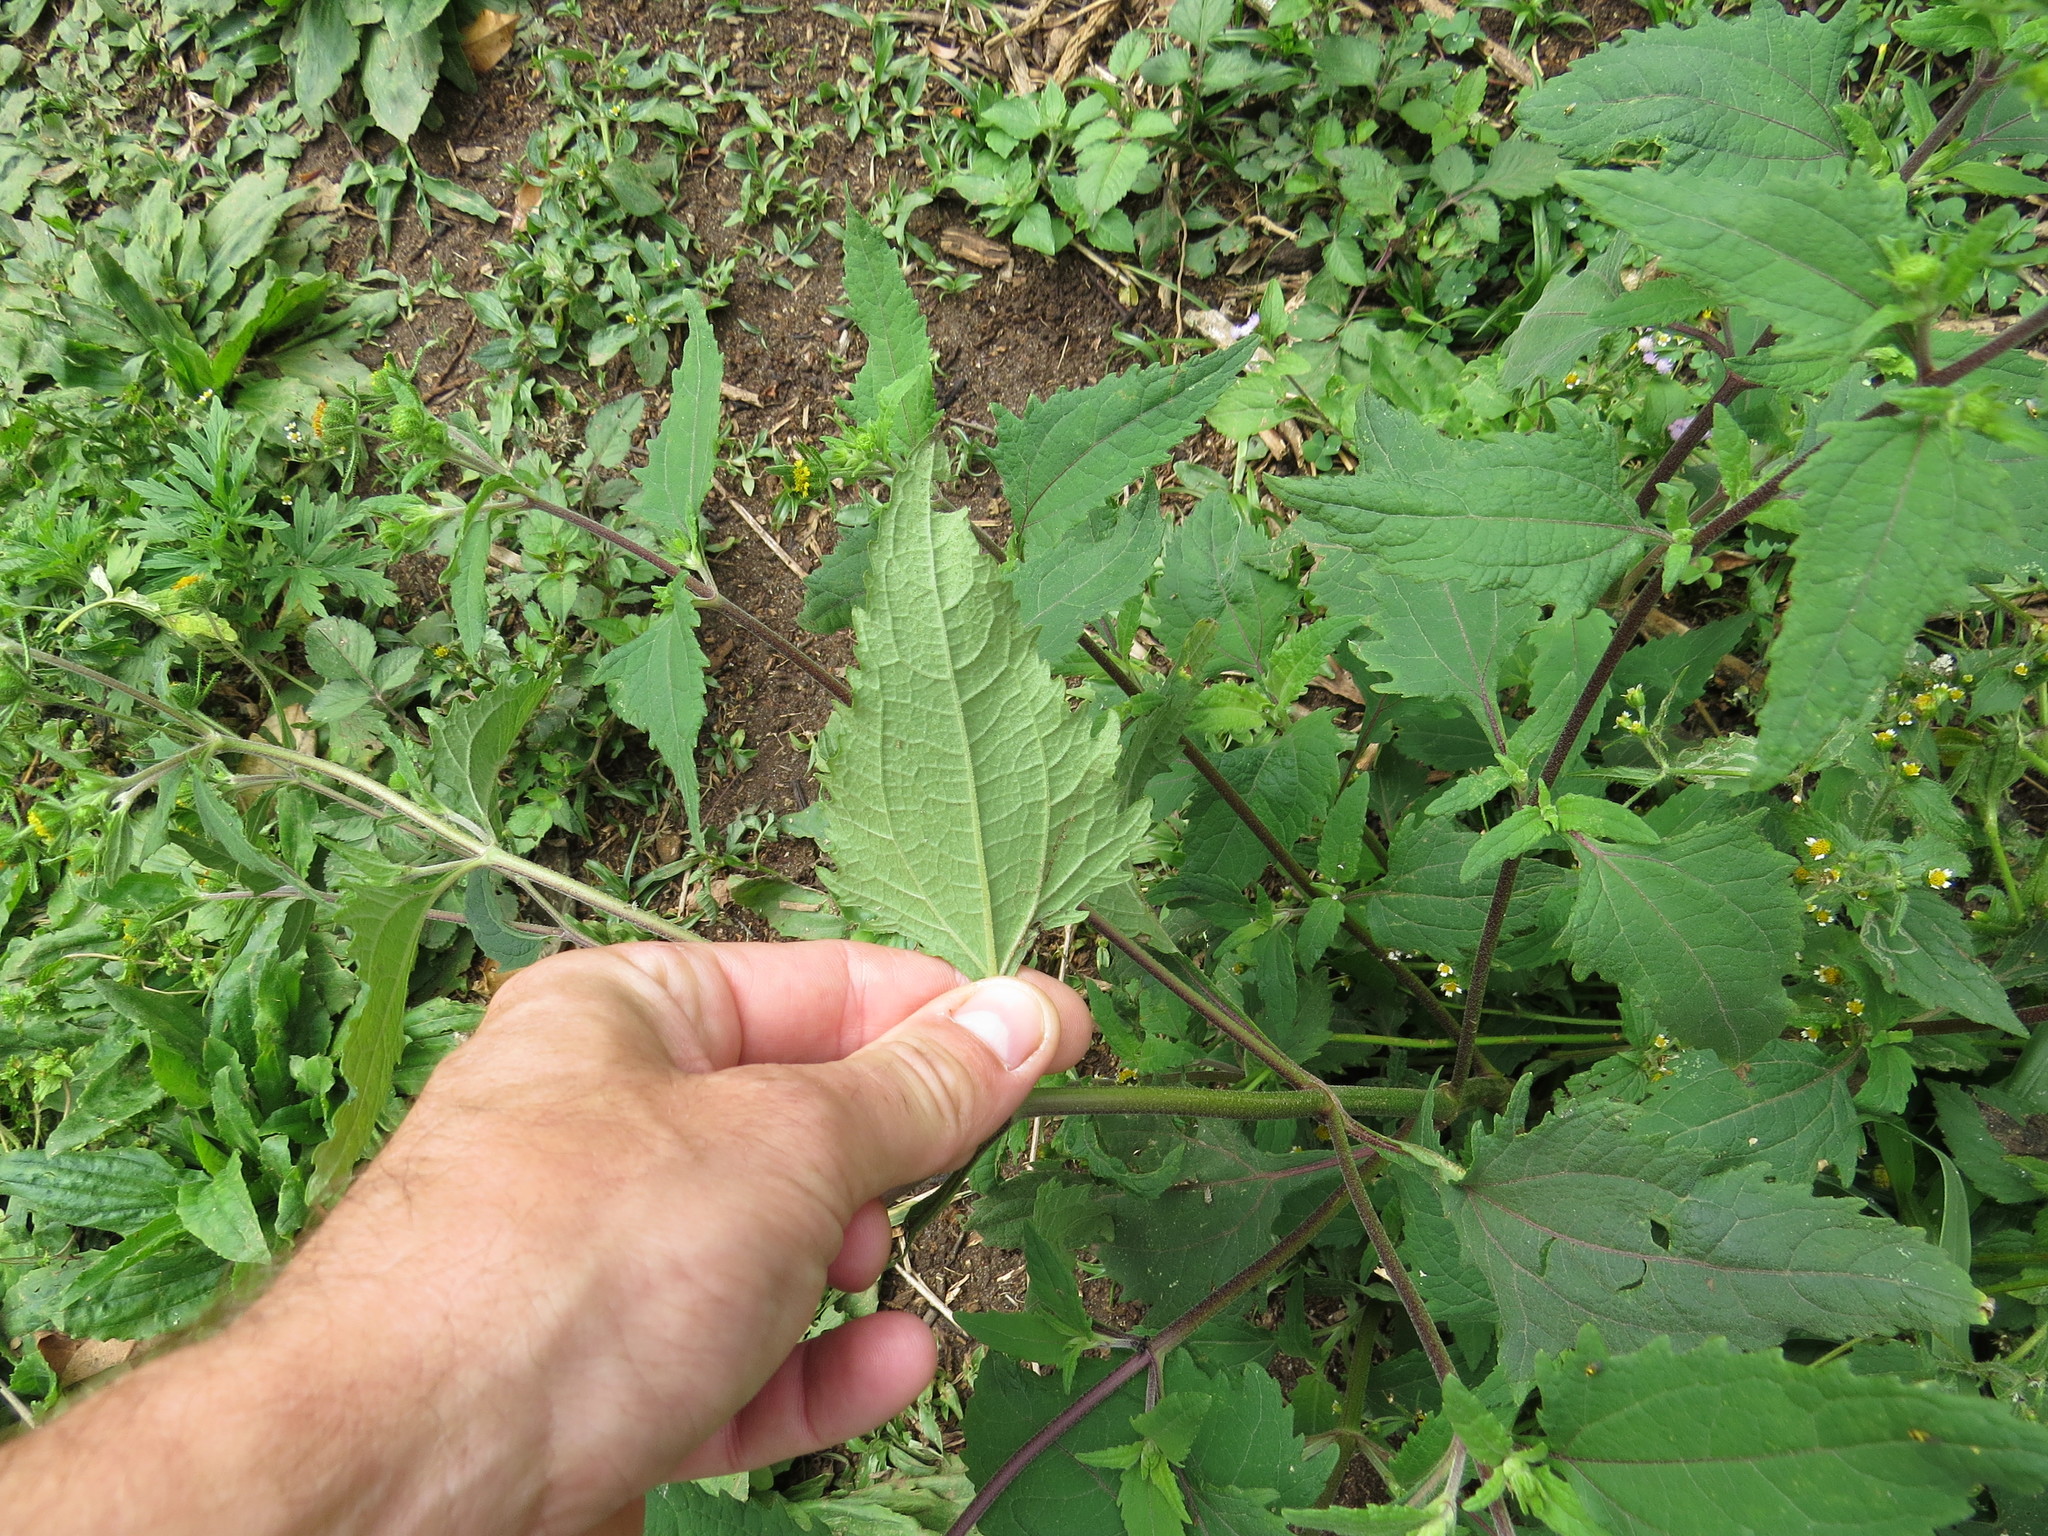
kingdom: Plantae
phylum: Tracheophyta
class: Magnoliopsida
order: Asterales
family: Asteraceae
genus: Sigesbeckia
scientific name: Sigesbeckia orientalis
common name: Eastern st paul's-wort
